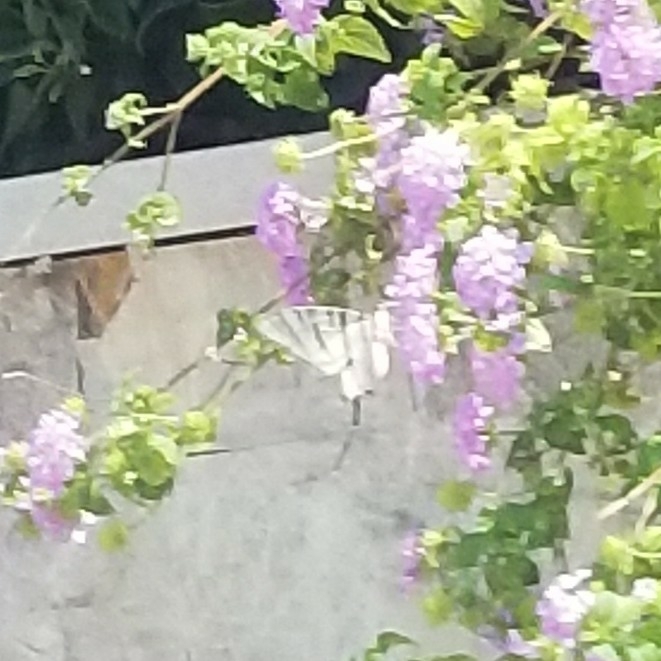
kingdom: Animalia
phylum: Arthropoda
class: Insecta
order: Lepidoptera
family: Papilionidae
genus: Iphiclides
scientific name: Iphiclides podalirius
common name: Scarce swallowtail
